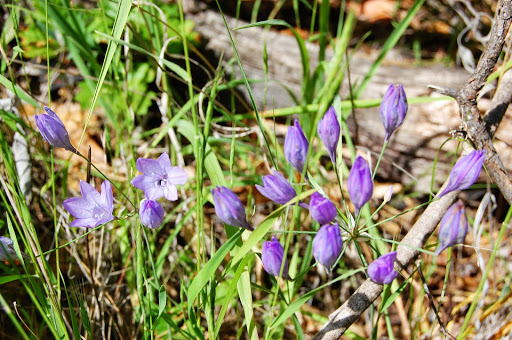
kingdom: Plantae
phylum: Tracheophyta
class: Liliopsida
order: Asparagales
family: Asparagaceae
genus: Triteleia
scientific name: Triteleia laxa
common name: Triplet-lily
